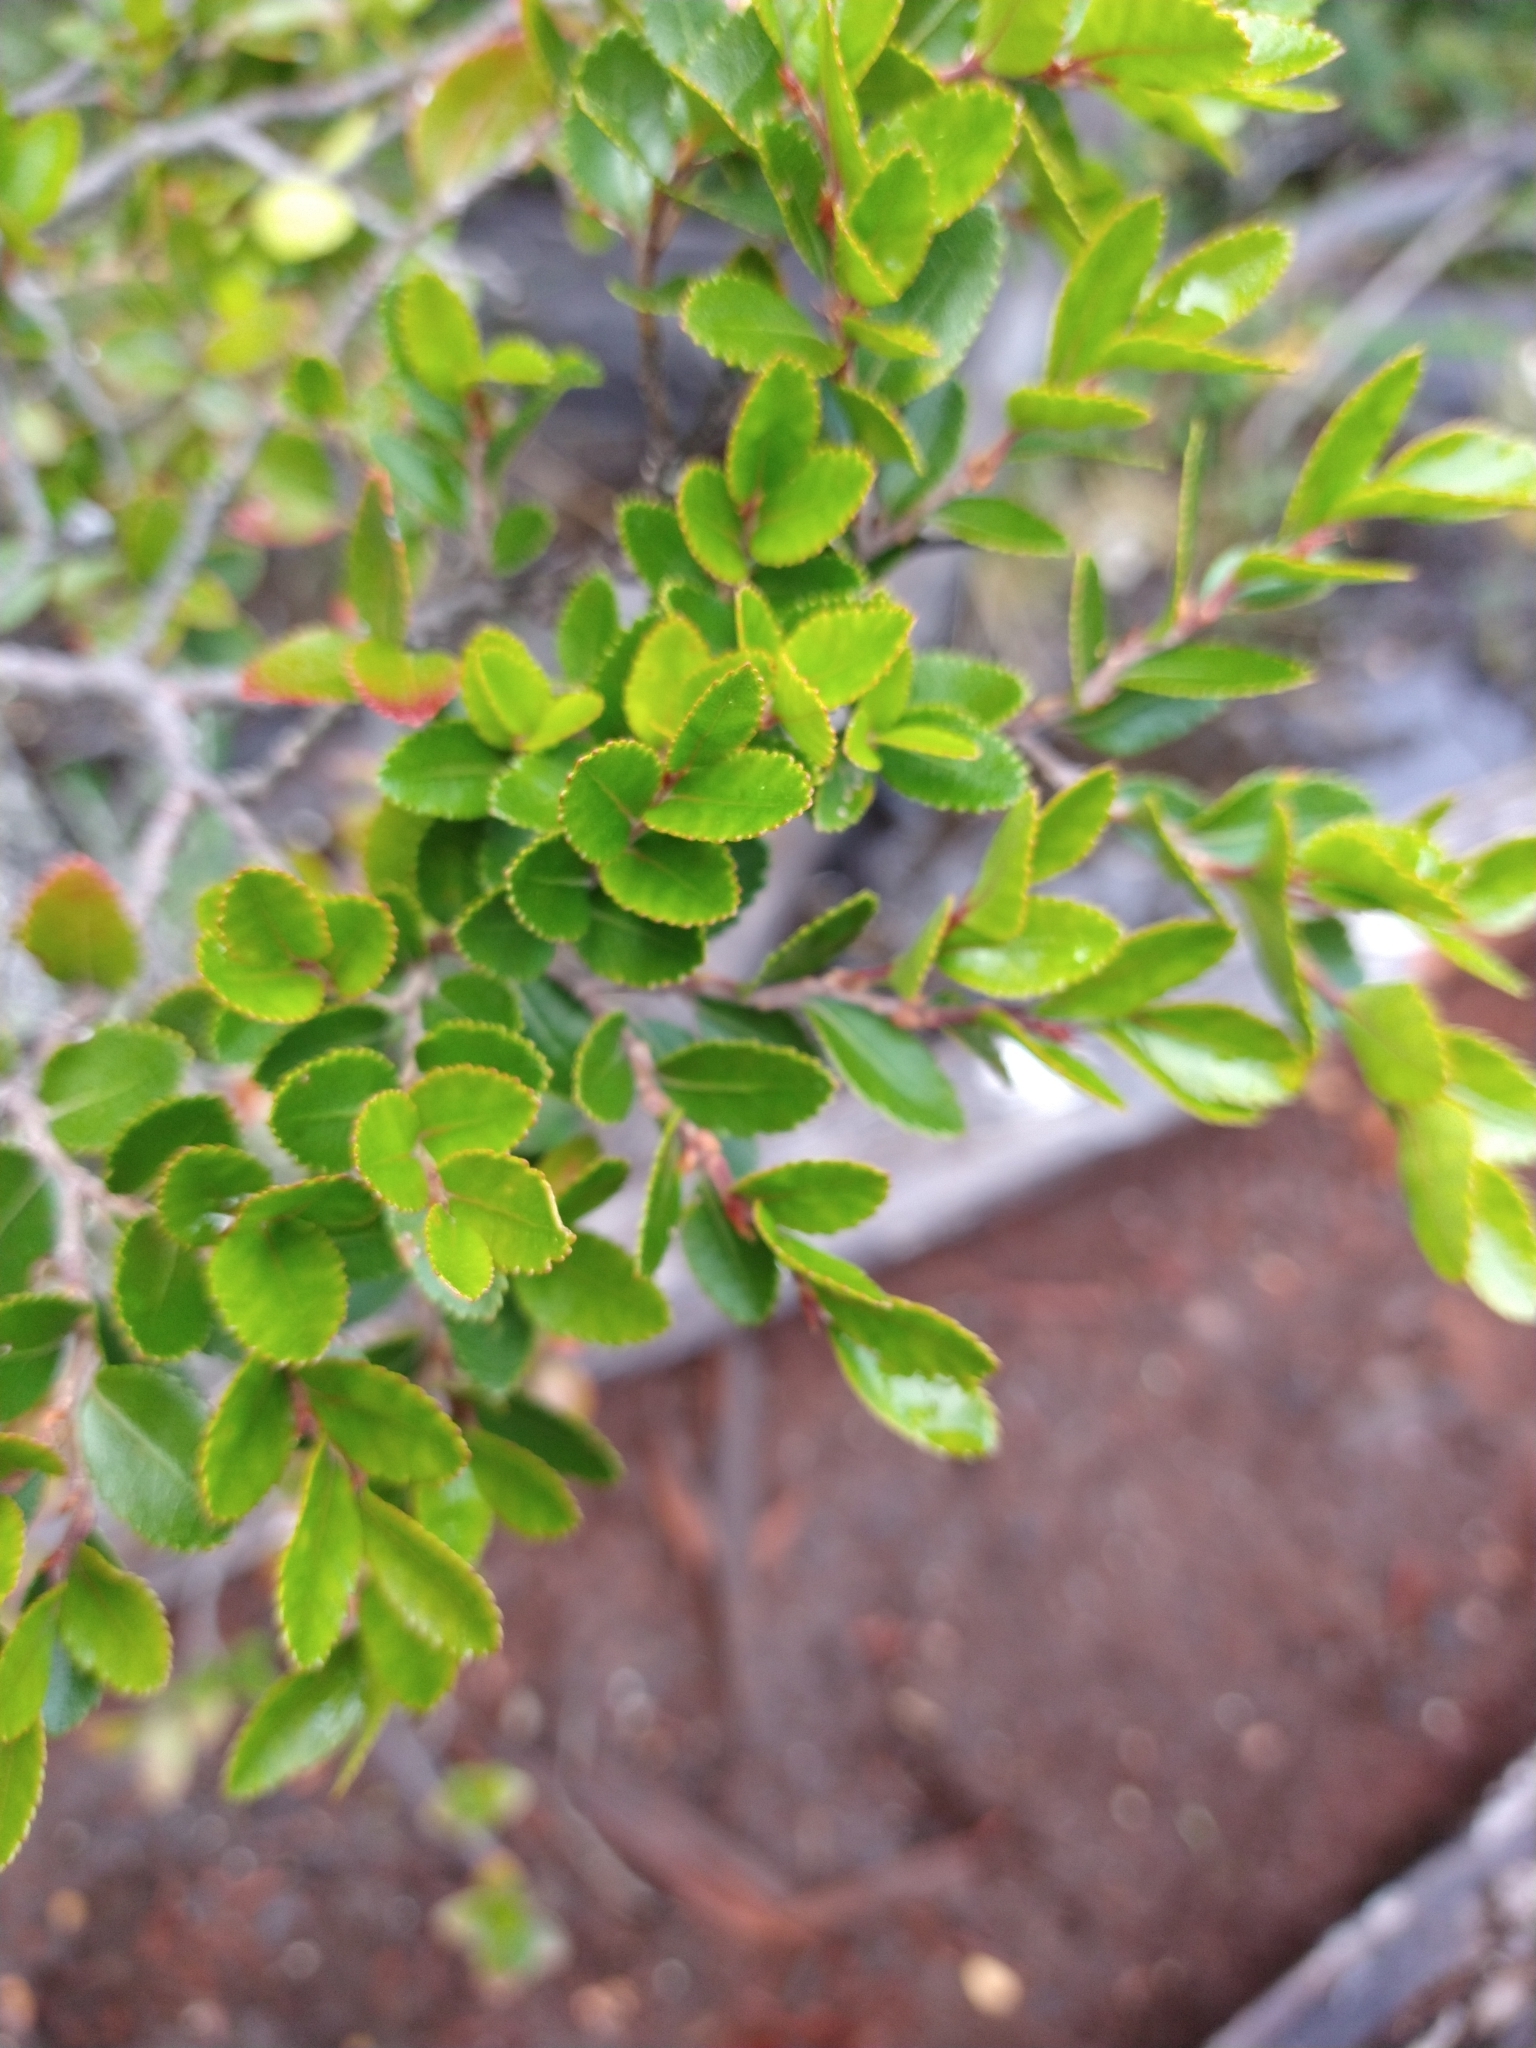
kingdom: Plantae
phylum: Tracheophyta
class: Magnoliopsida
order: Fagales
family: Nothofagaceae
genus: Nothofagus
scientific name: Nothofagus betuloides
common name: Magellan's beech
